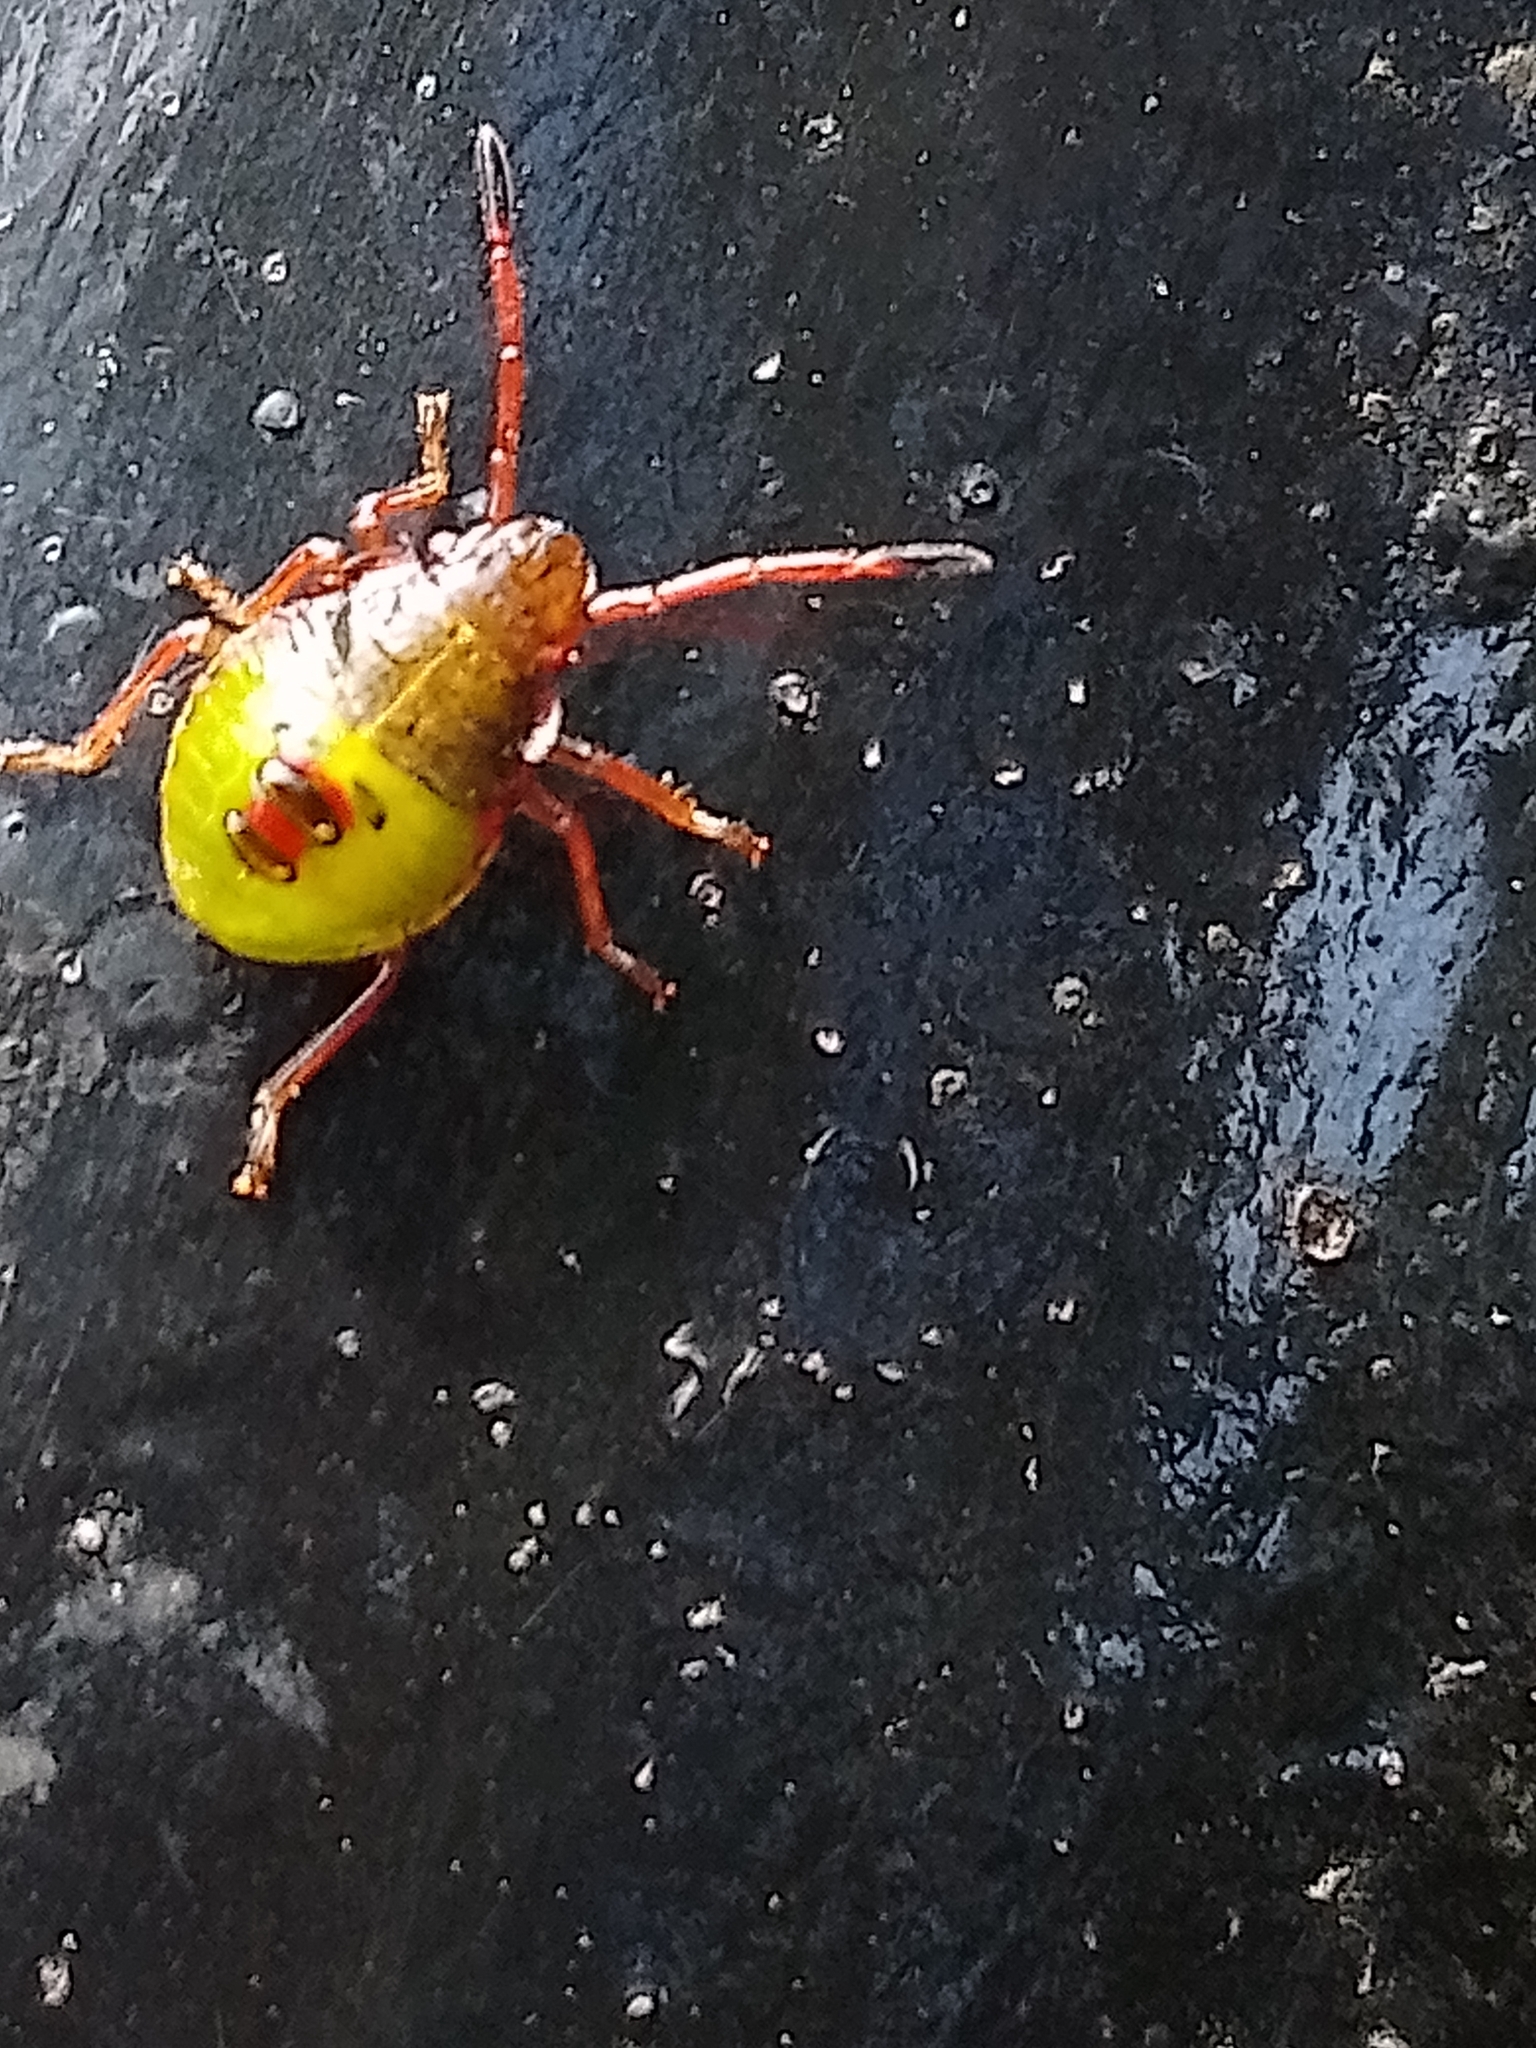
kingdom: Animalia
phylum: Arthropoda
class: Insecta
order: Hemiptera
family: Acanthosomatidae
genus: Elasmostethus
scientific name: Elasmostethus interstinctus
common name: Birch shieldbug
